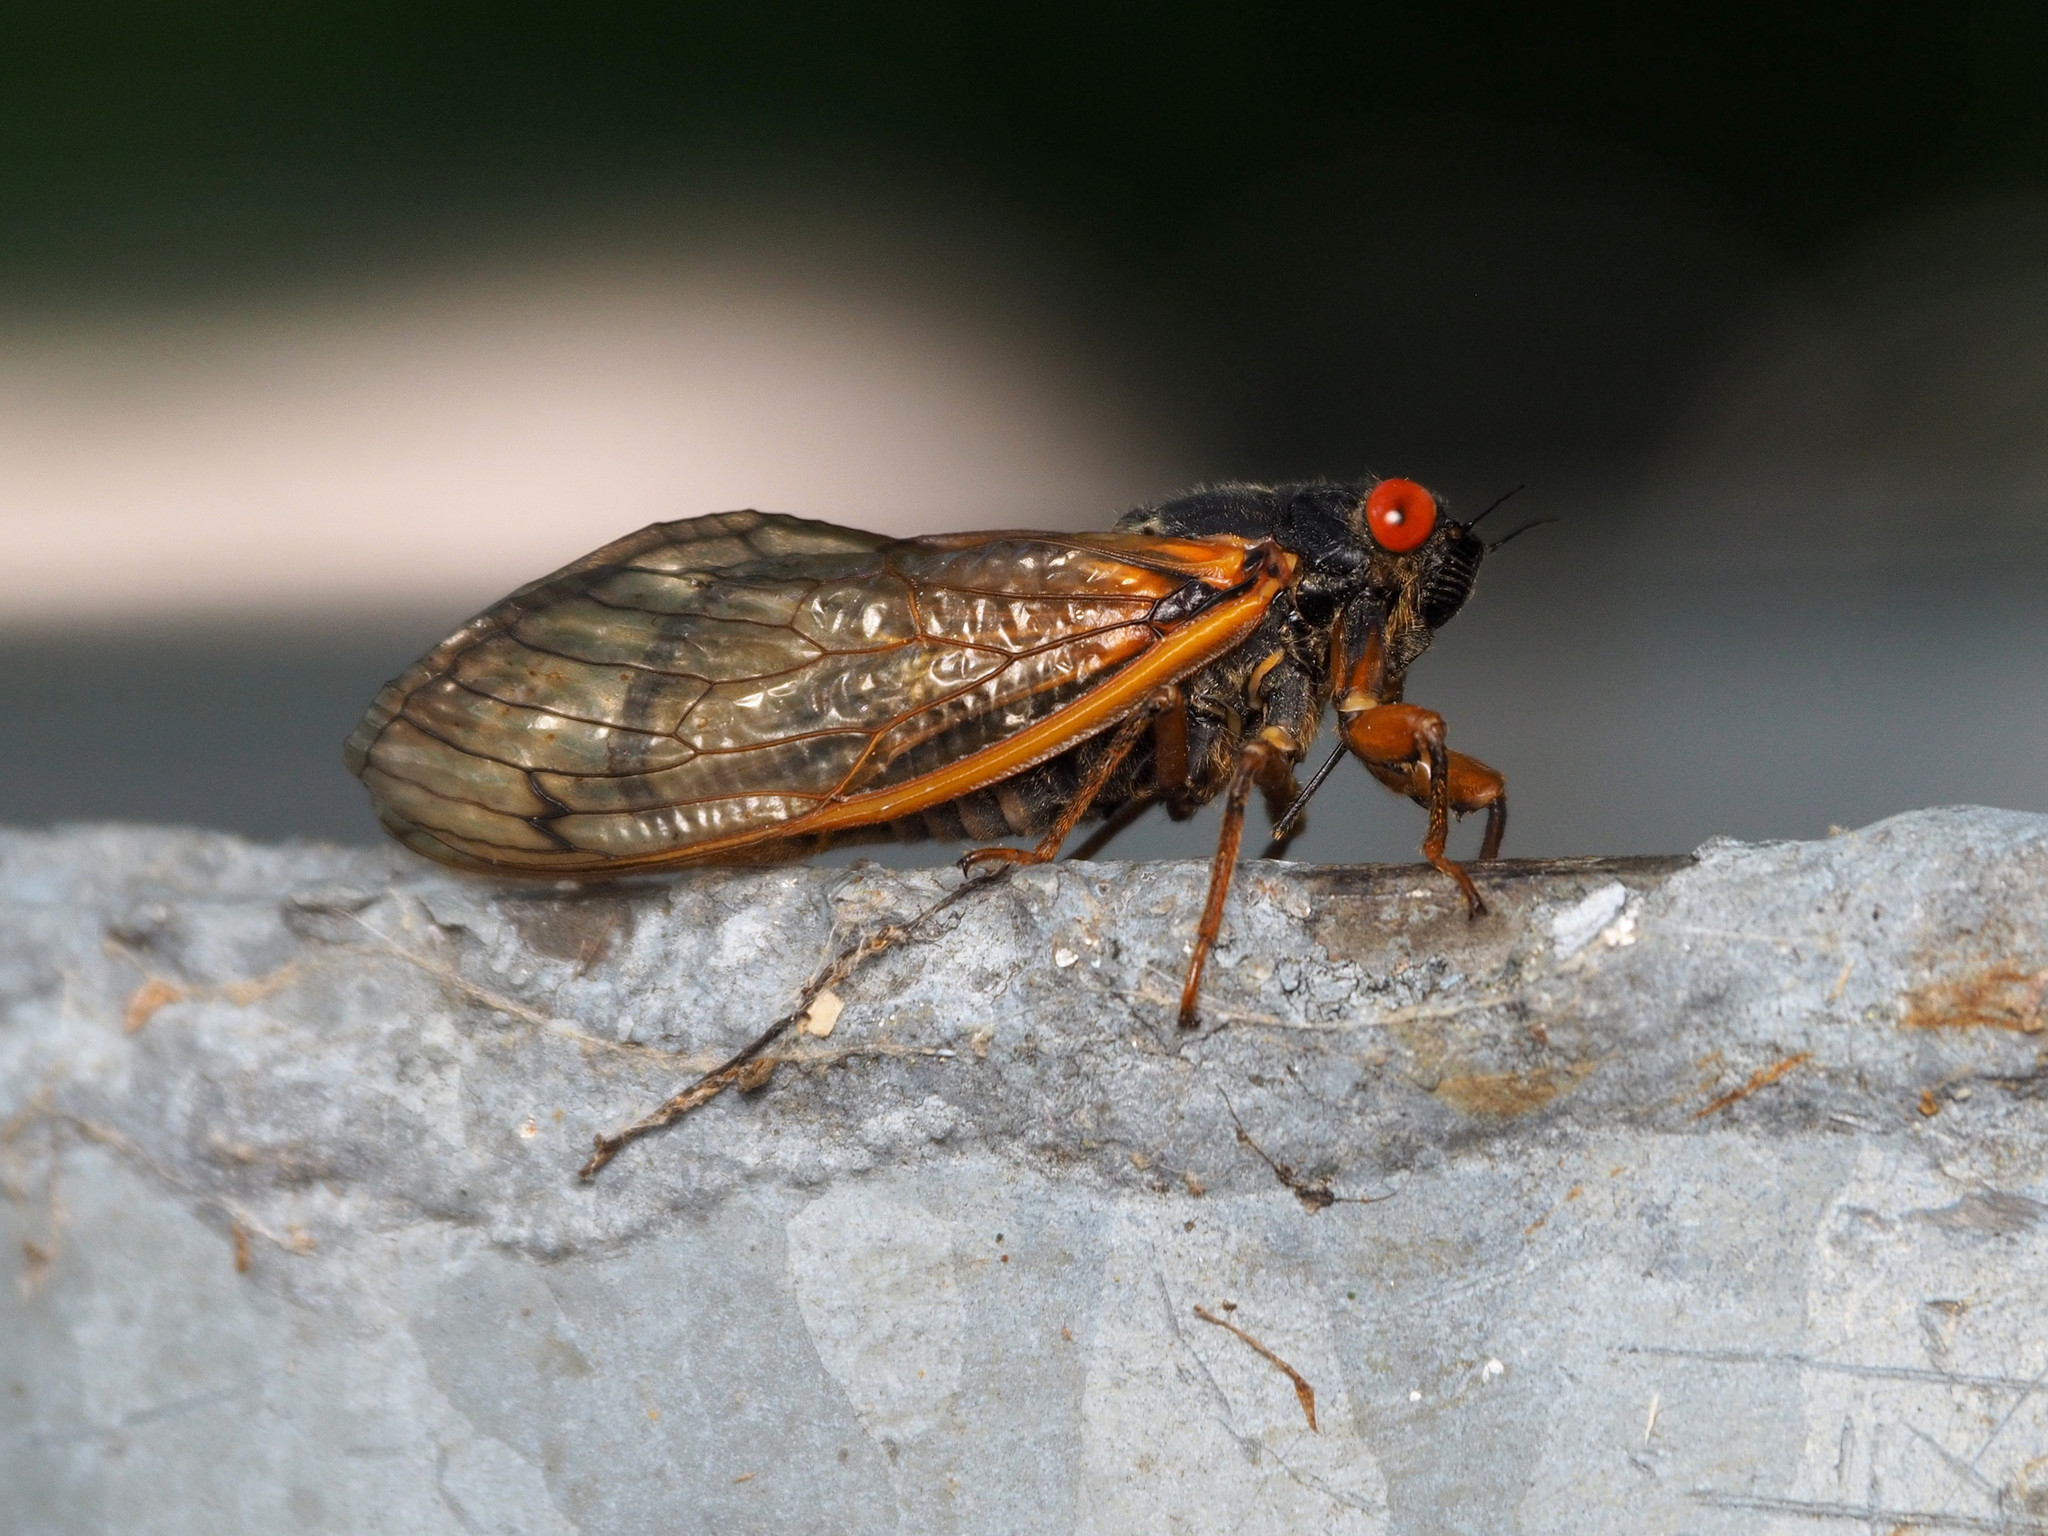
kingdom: Animalia
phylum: Arthropoda
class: Insecta
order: Hemiptera
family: Cicadidae
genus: Magicicada
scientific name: Magicicada septendecula
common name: Decula periodical cicada
